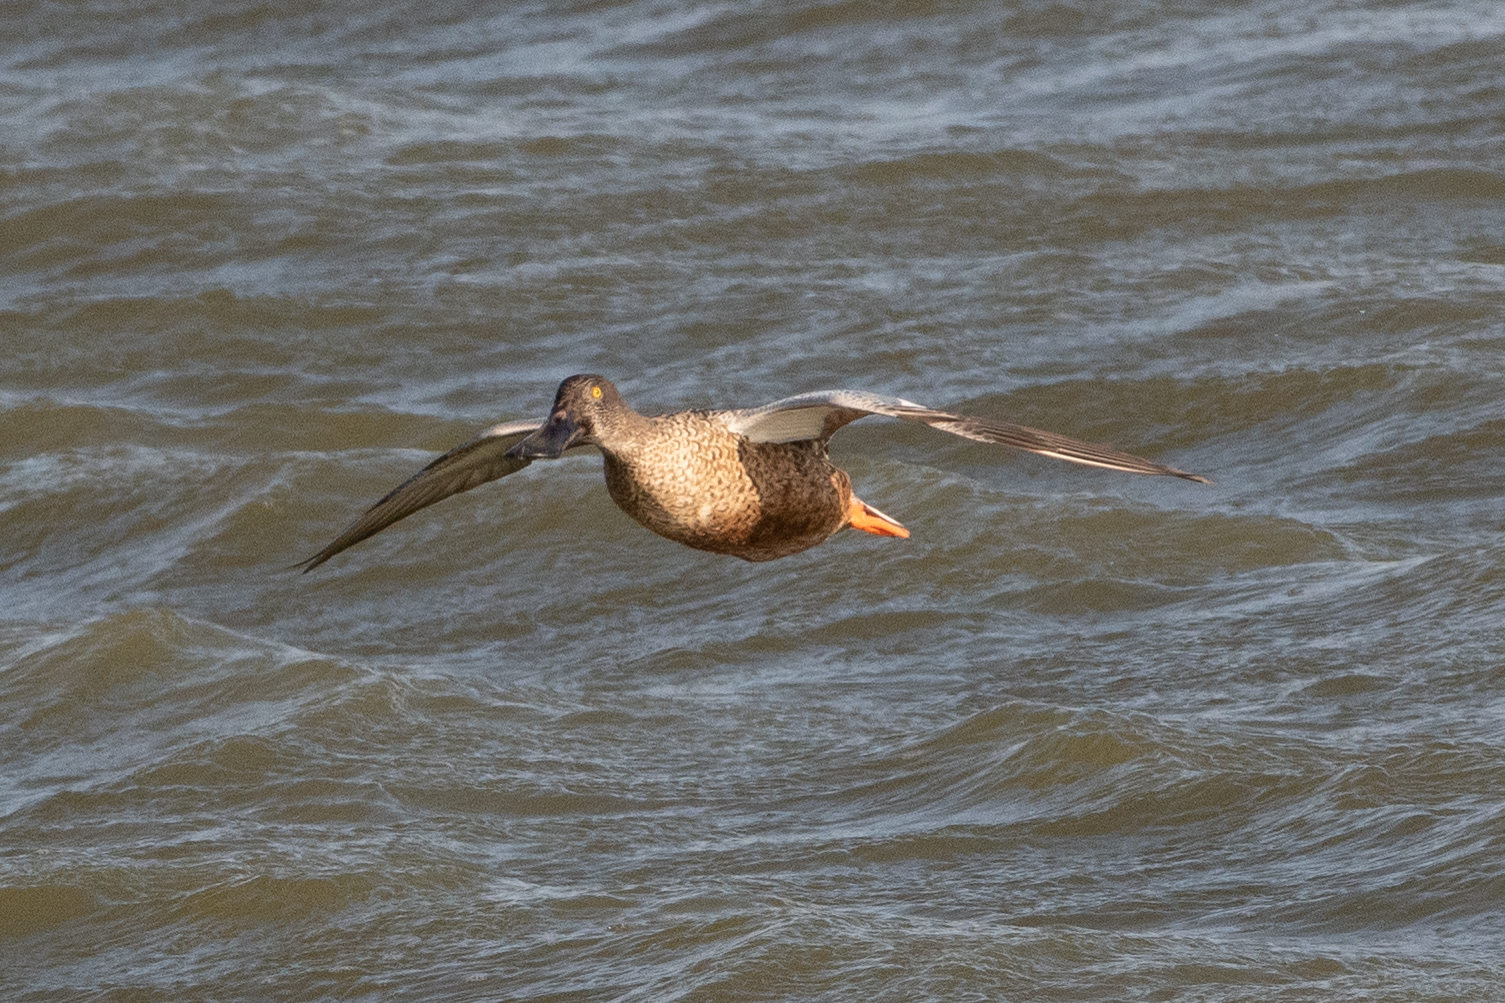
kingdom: Animalia
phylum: Chordata
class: Aves
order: Anseriformes
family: Anatidae
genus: Spatula
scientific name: Spatula clypeata
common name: Northern shoveler
